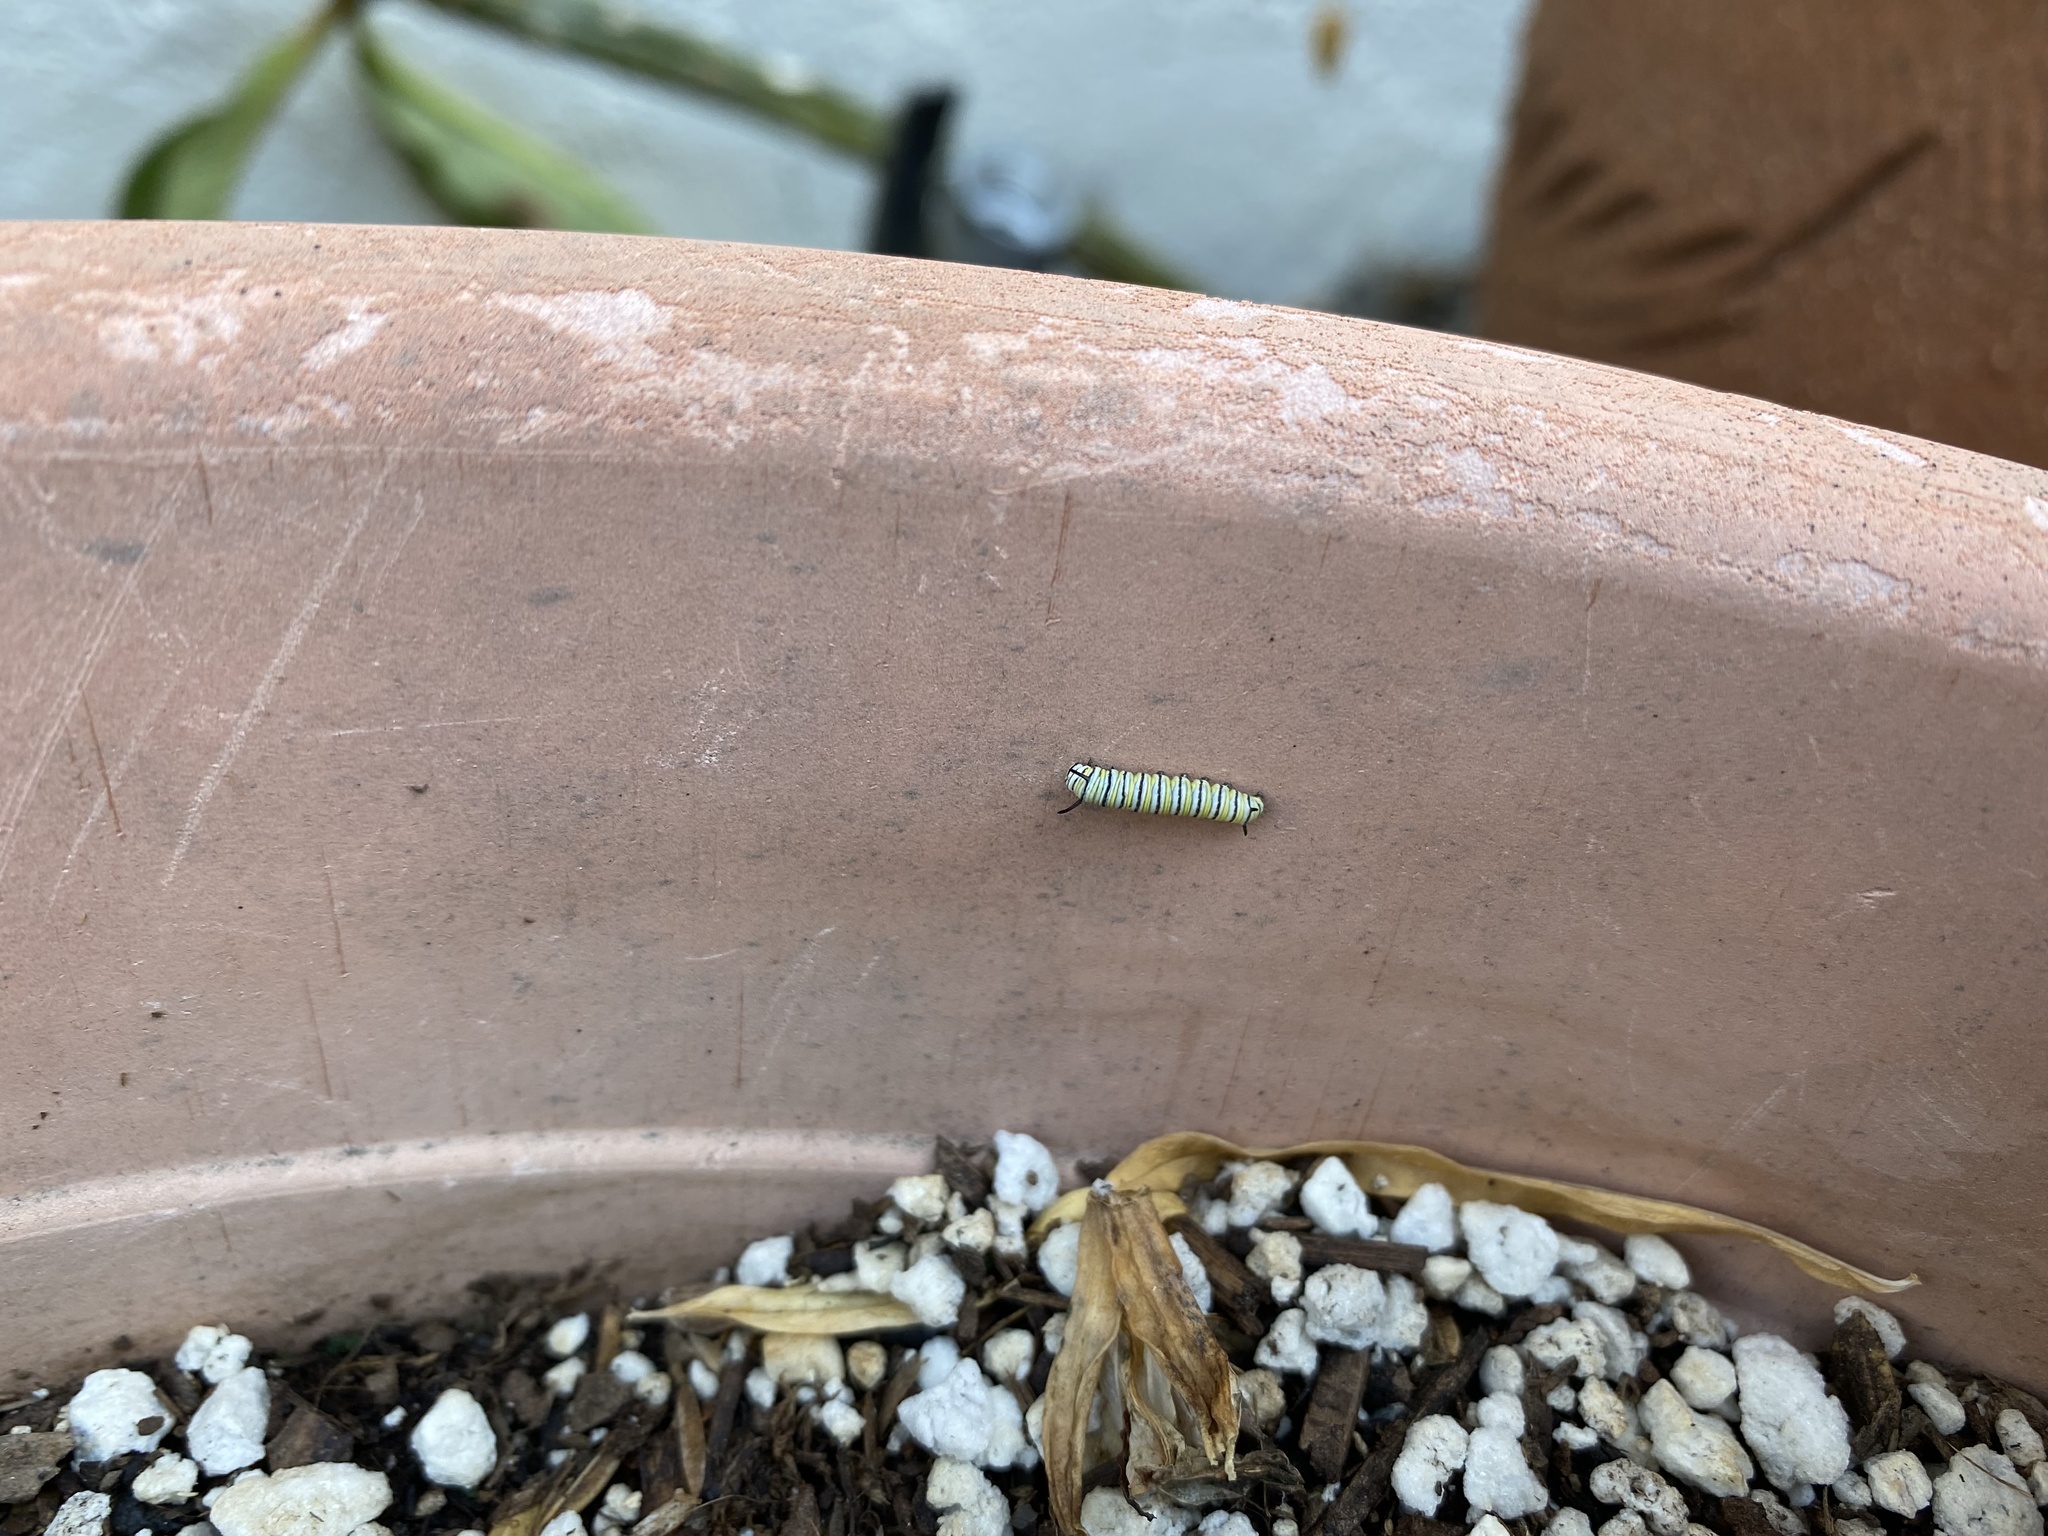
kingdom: Animalia
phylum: Arthropoda
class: Insecta
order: Lepidoptera
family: Nymphalidae
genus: Danaus
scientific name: Danaus plexippus
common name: Monarch
